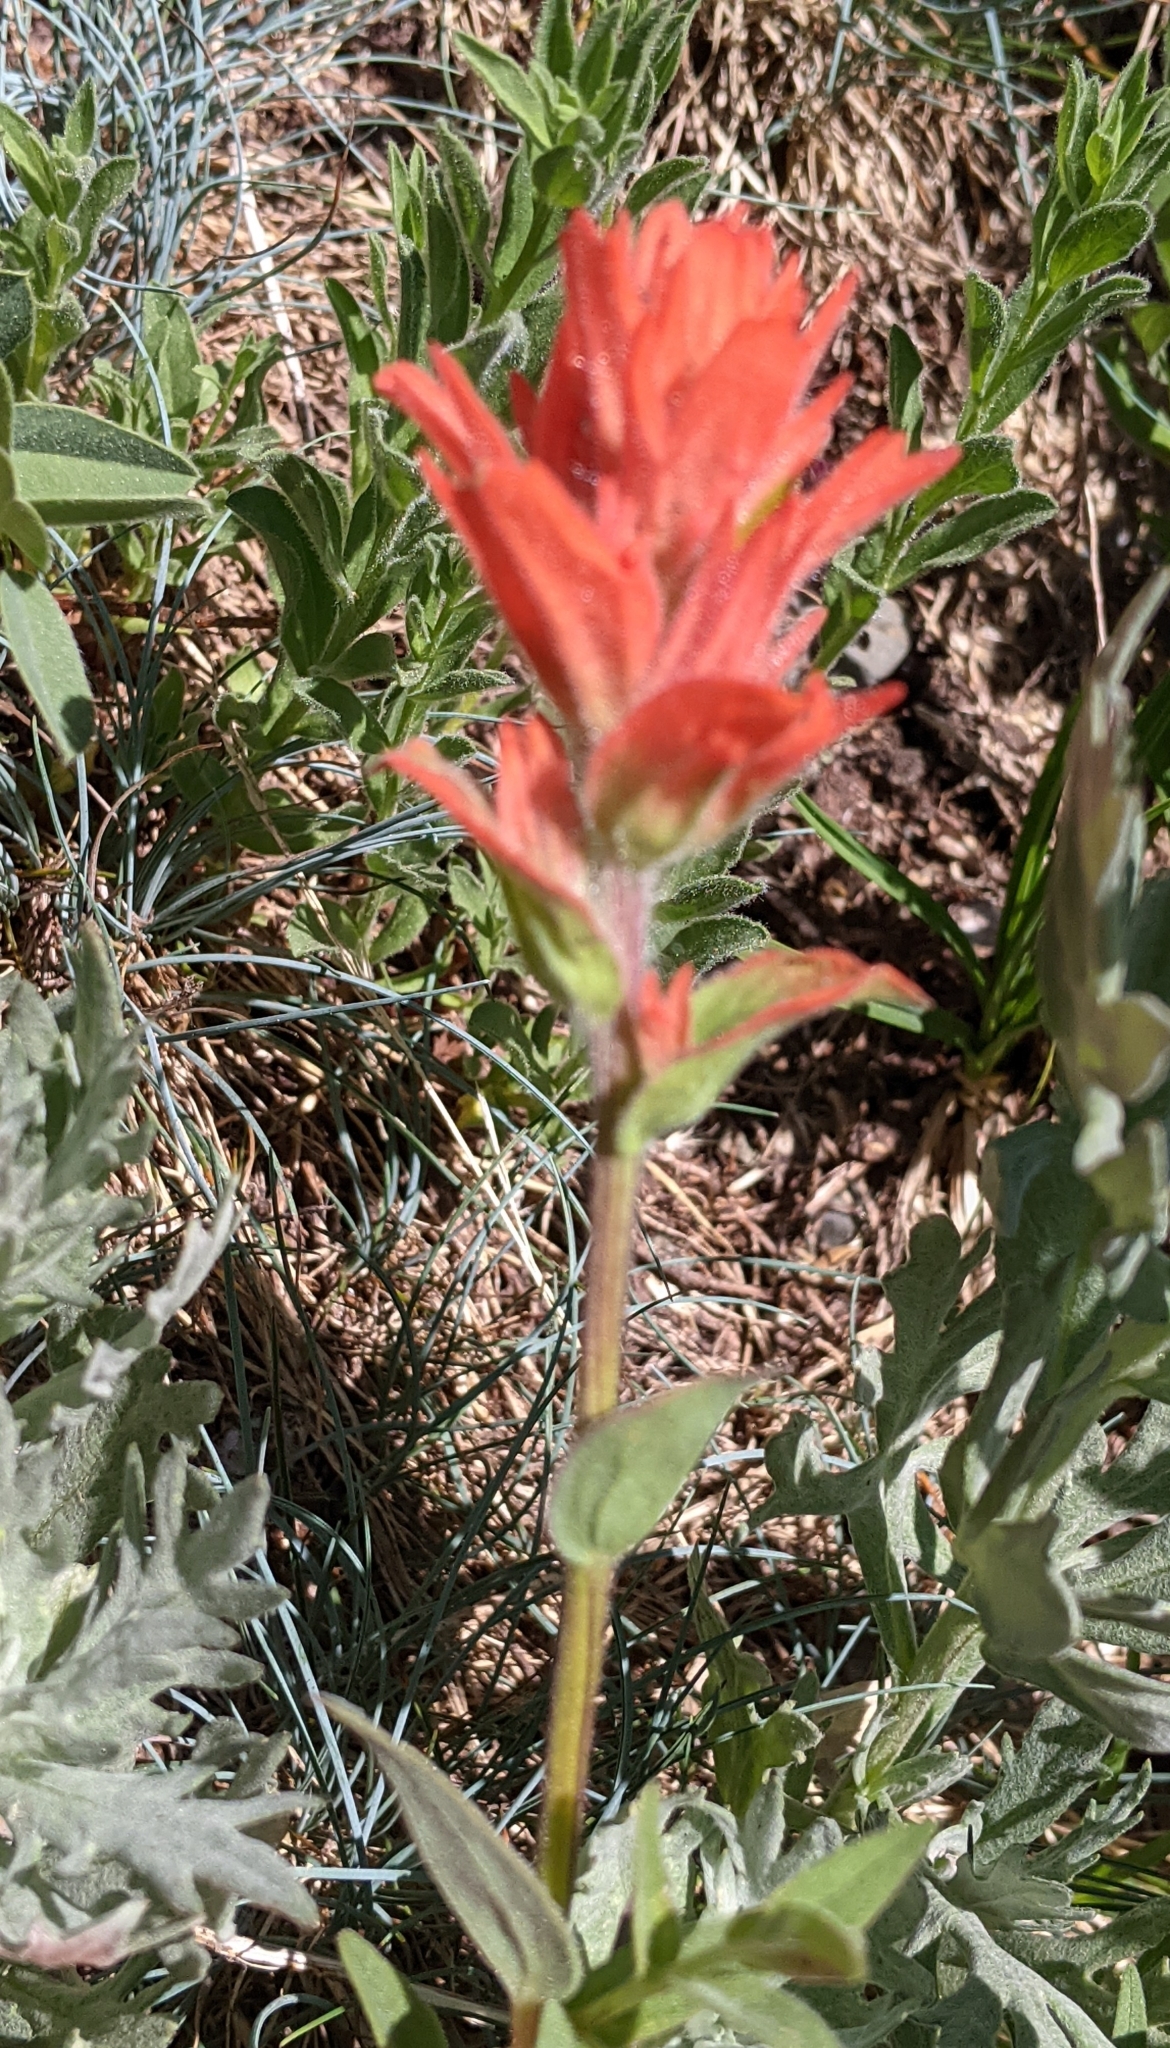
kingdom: Plantae
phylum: Tracheophyta
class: Magnoliopsida
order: Lamiales
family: Orobanchaceae
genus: Castilleja
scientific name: Castilleja miniata
